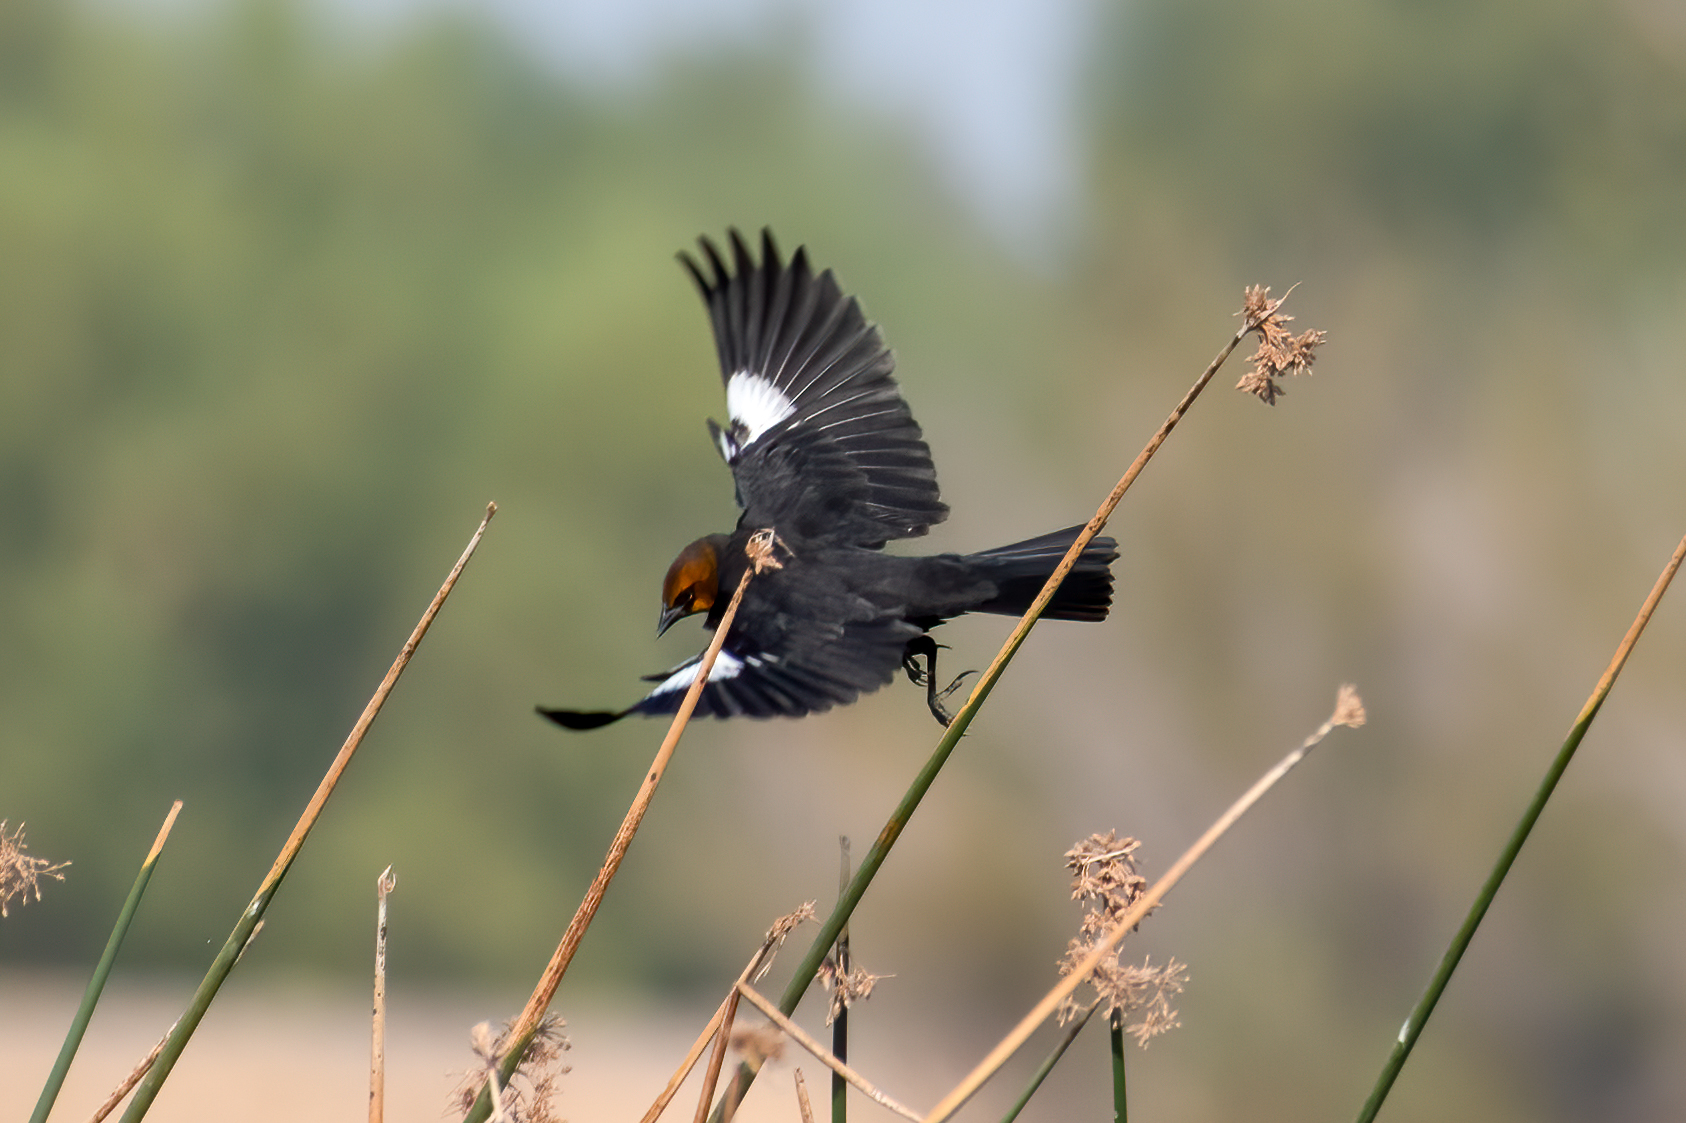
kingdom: Animalia
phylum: Chordata
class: Aves
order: Passeriformes
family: Icteridae
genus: Xanthocephalus
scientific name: Xanthocephalus xanthocephalus
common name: Yellow-headed blackbird
